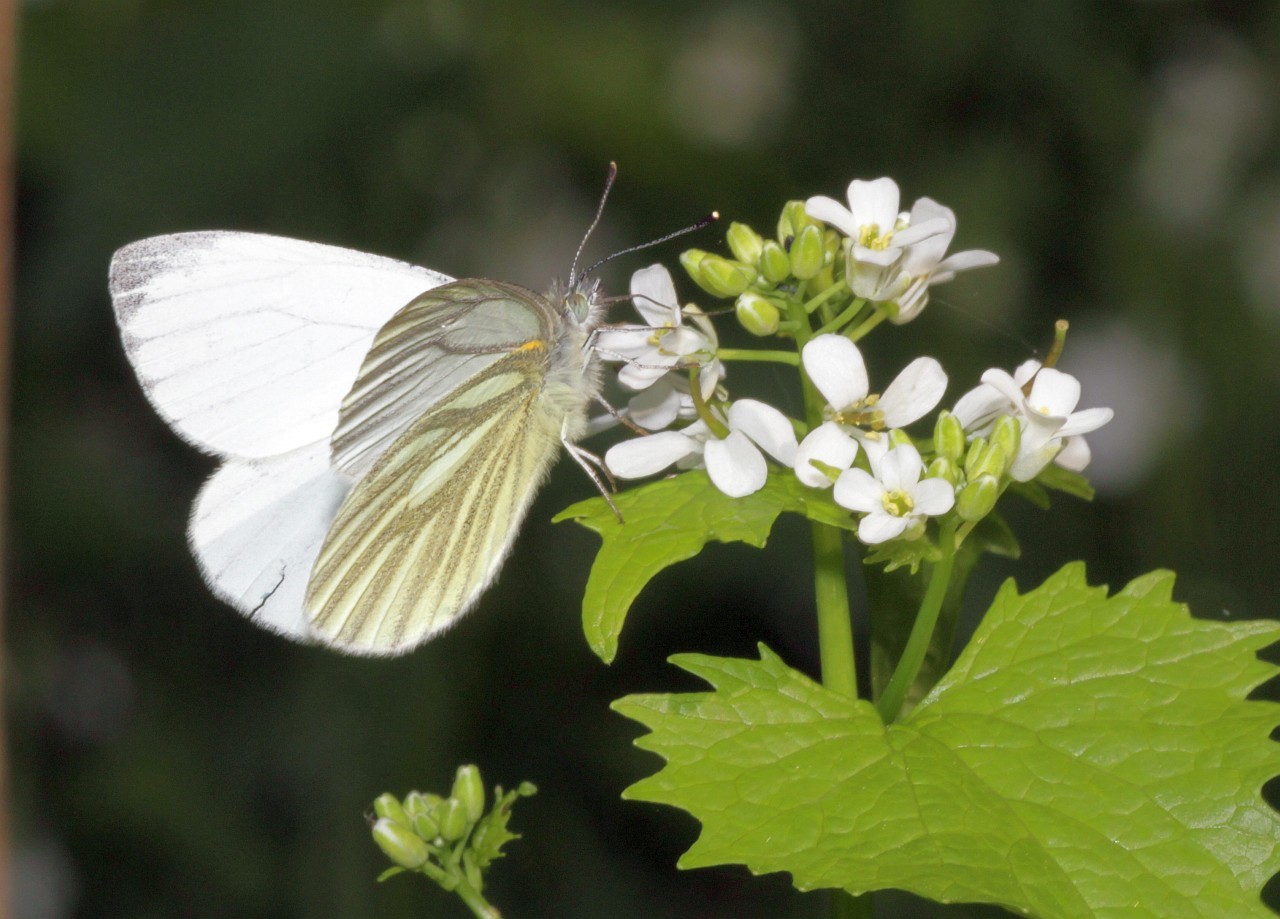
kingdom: Animalia
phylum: Arthropoda
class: Insecta
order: Lepidoptera
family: Pieridae
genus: Pieris
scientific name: Pieris napi
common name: Green-veined white
